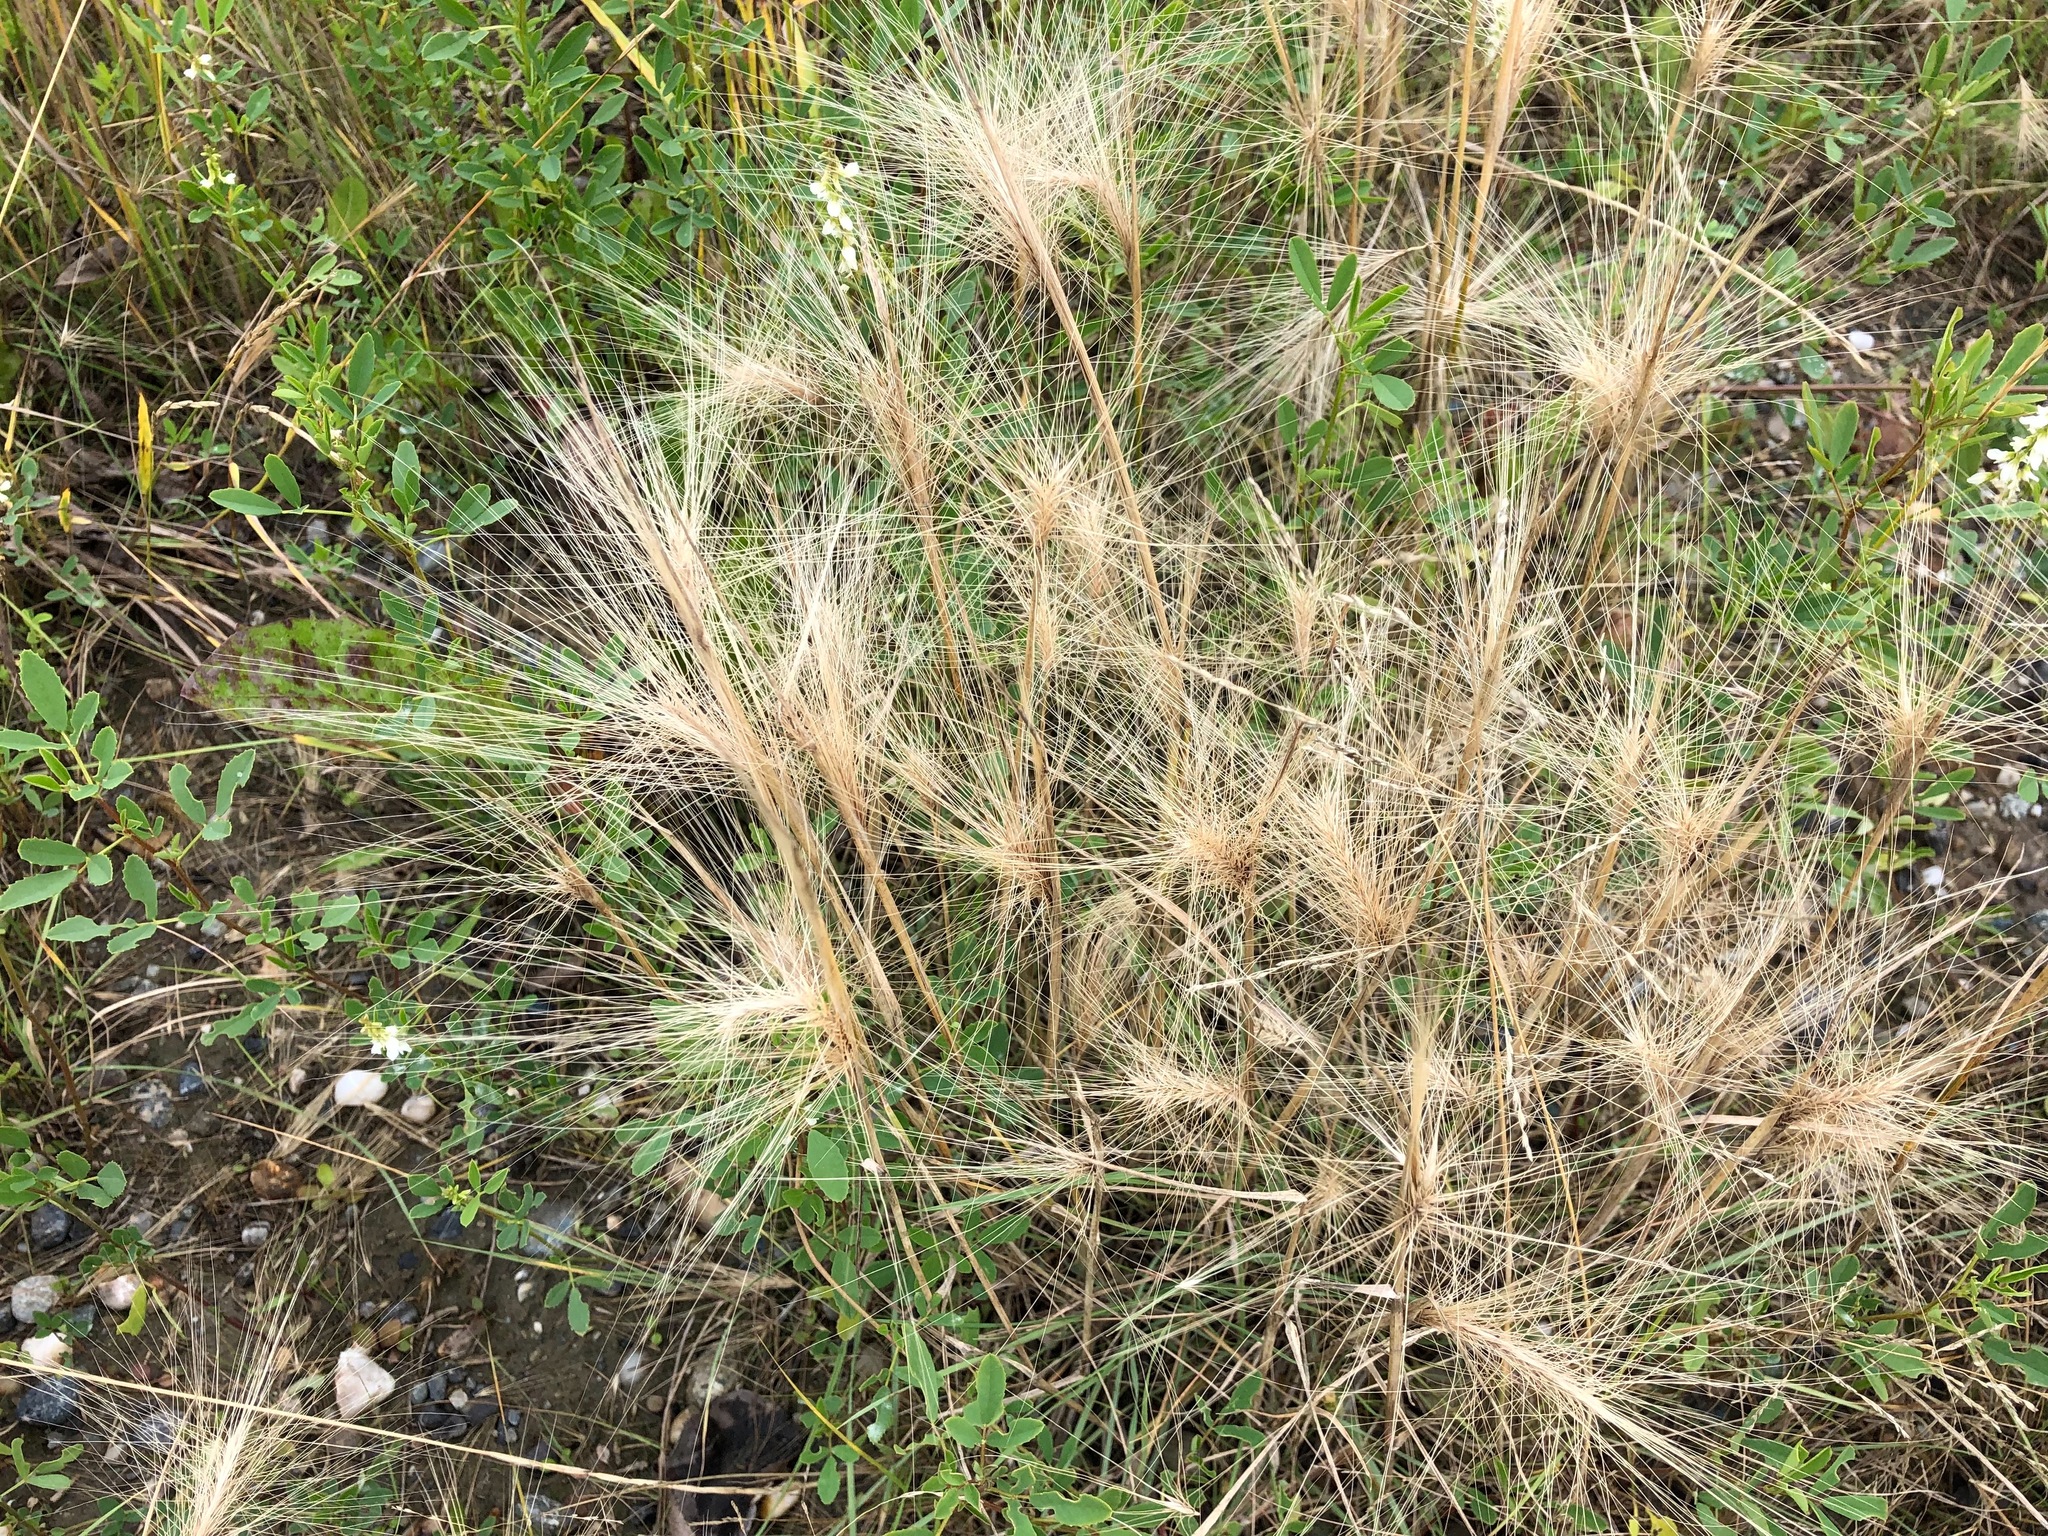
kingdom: Plantae
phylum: Tracheophyta
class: Liliopsida
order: Poales
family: Poaceae
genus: Hordeum
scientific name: Hordeum jubatum
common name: Foxtail barley
